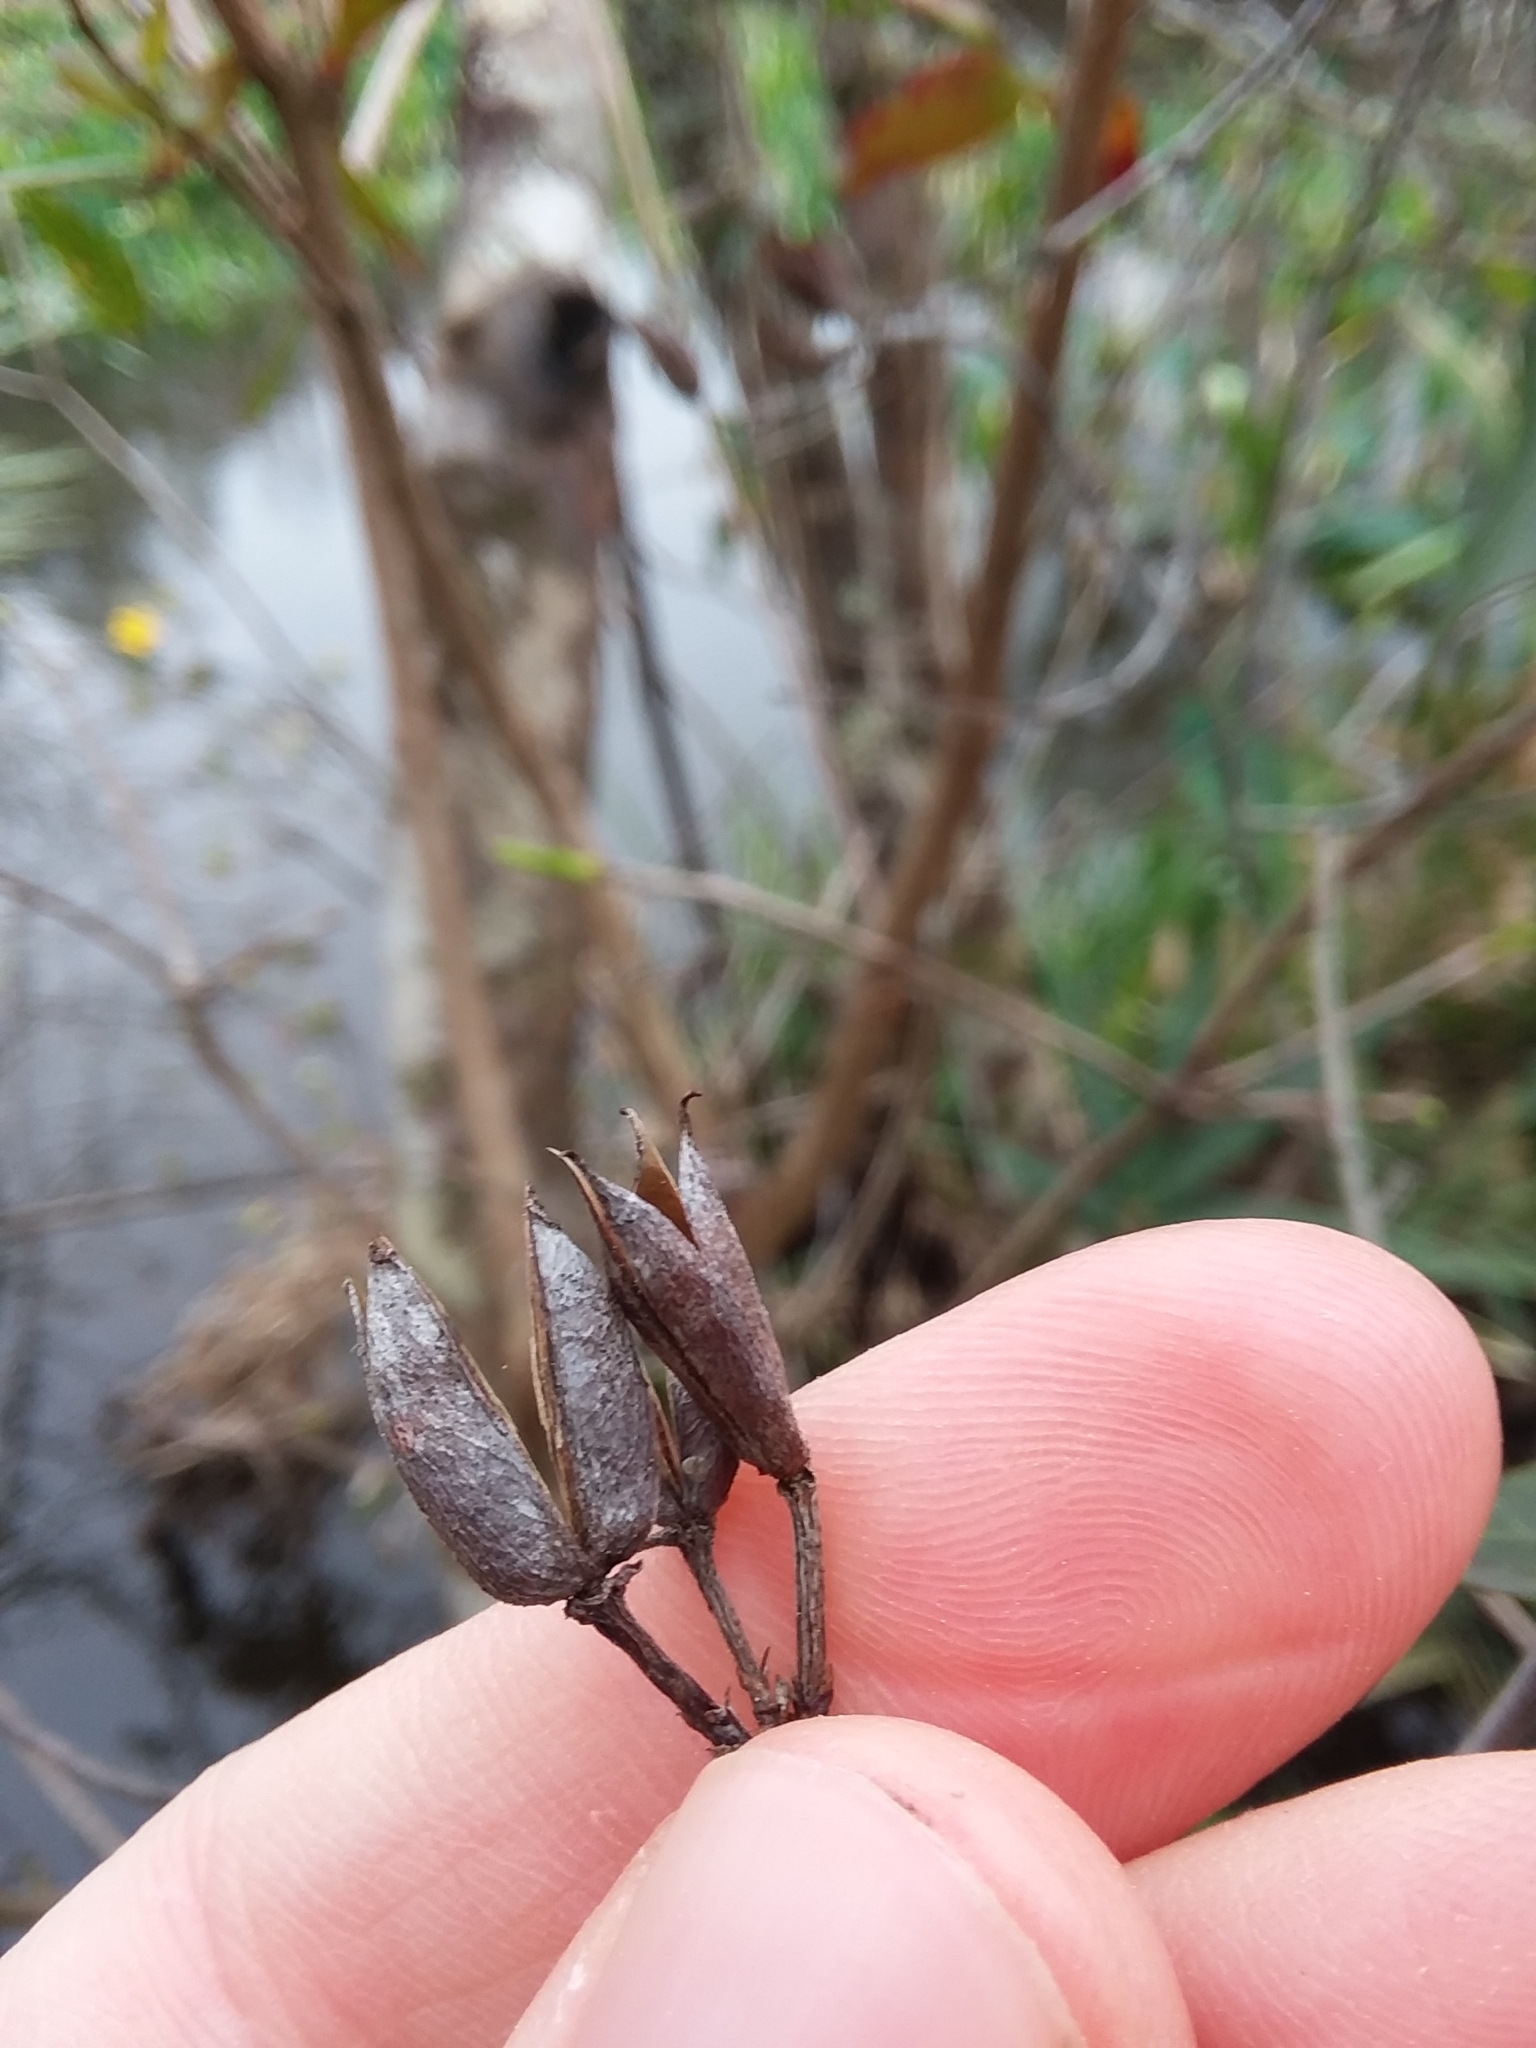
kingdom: Plantae
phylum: Tracheophyta
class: Magnoliopsida
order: Gentianales
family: Gelsemiaceae
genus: Gelsemium
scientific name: Gelsemium rankinii
